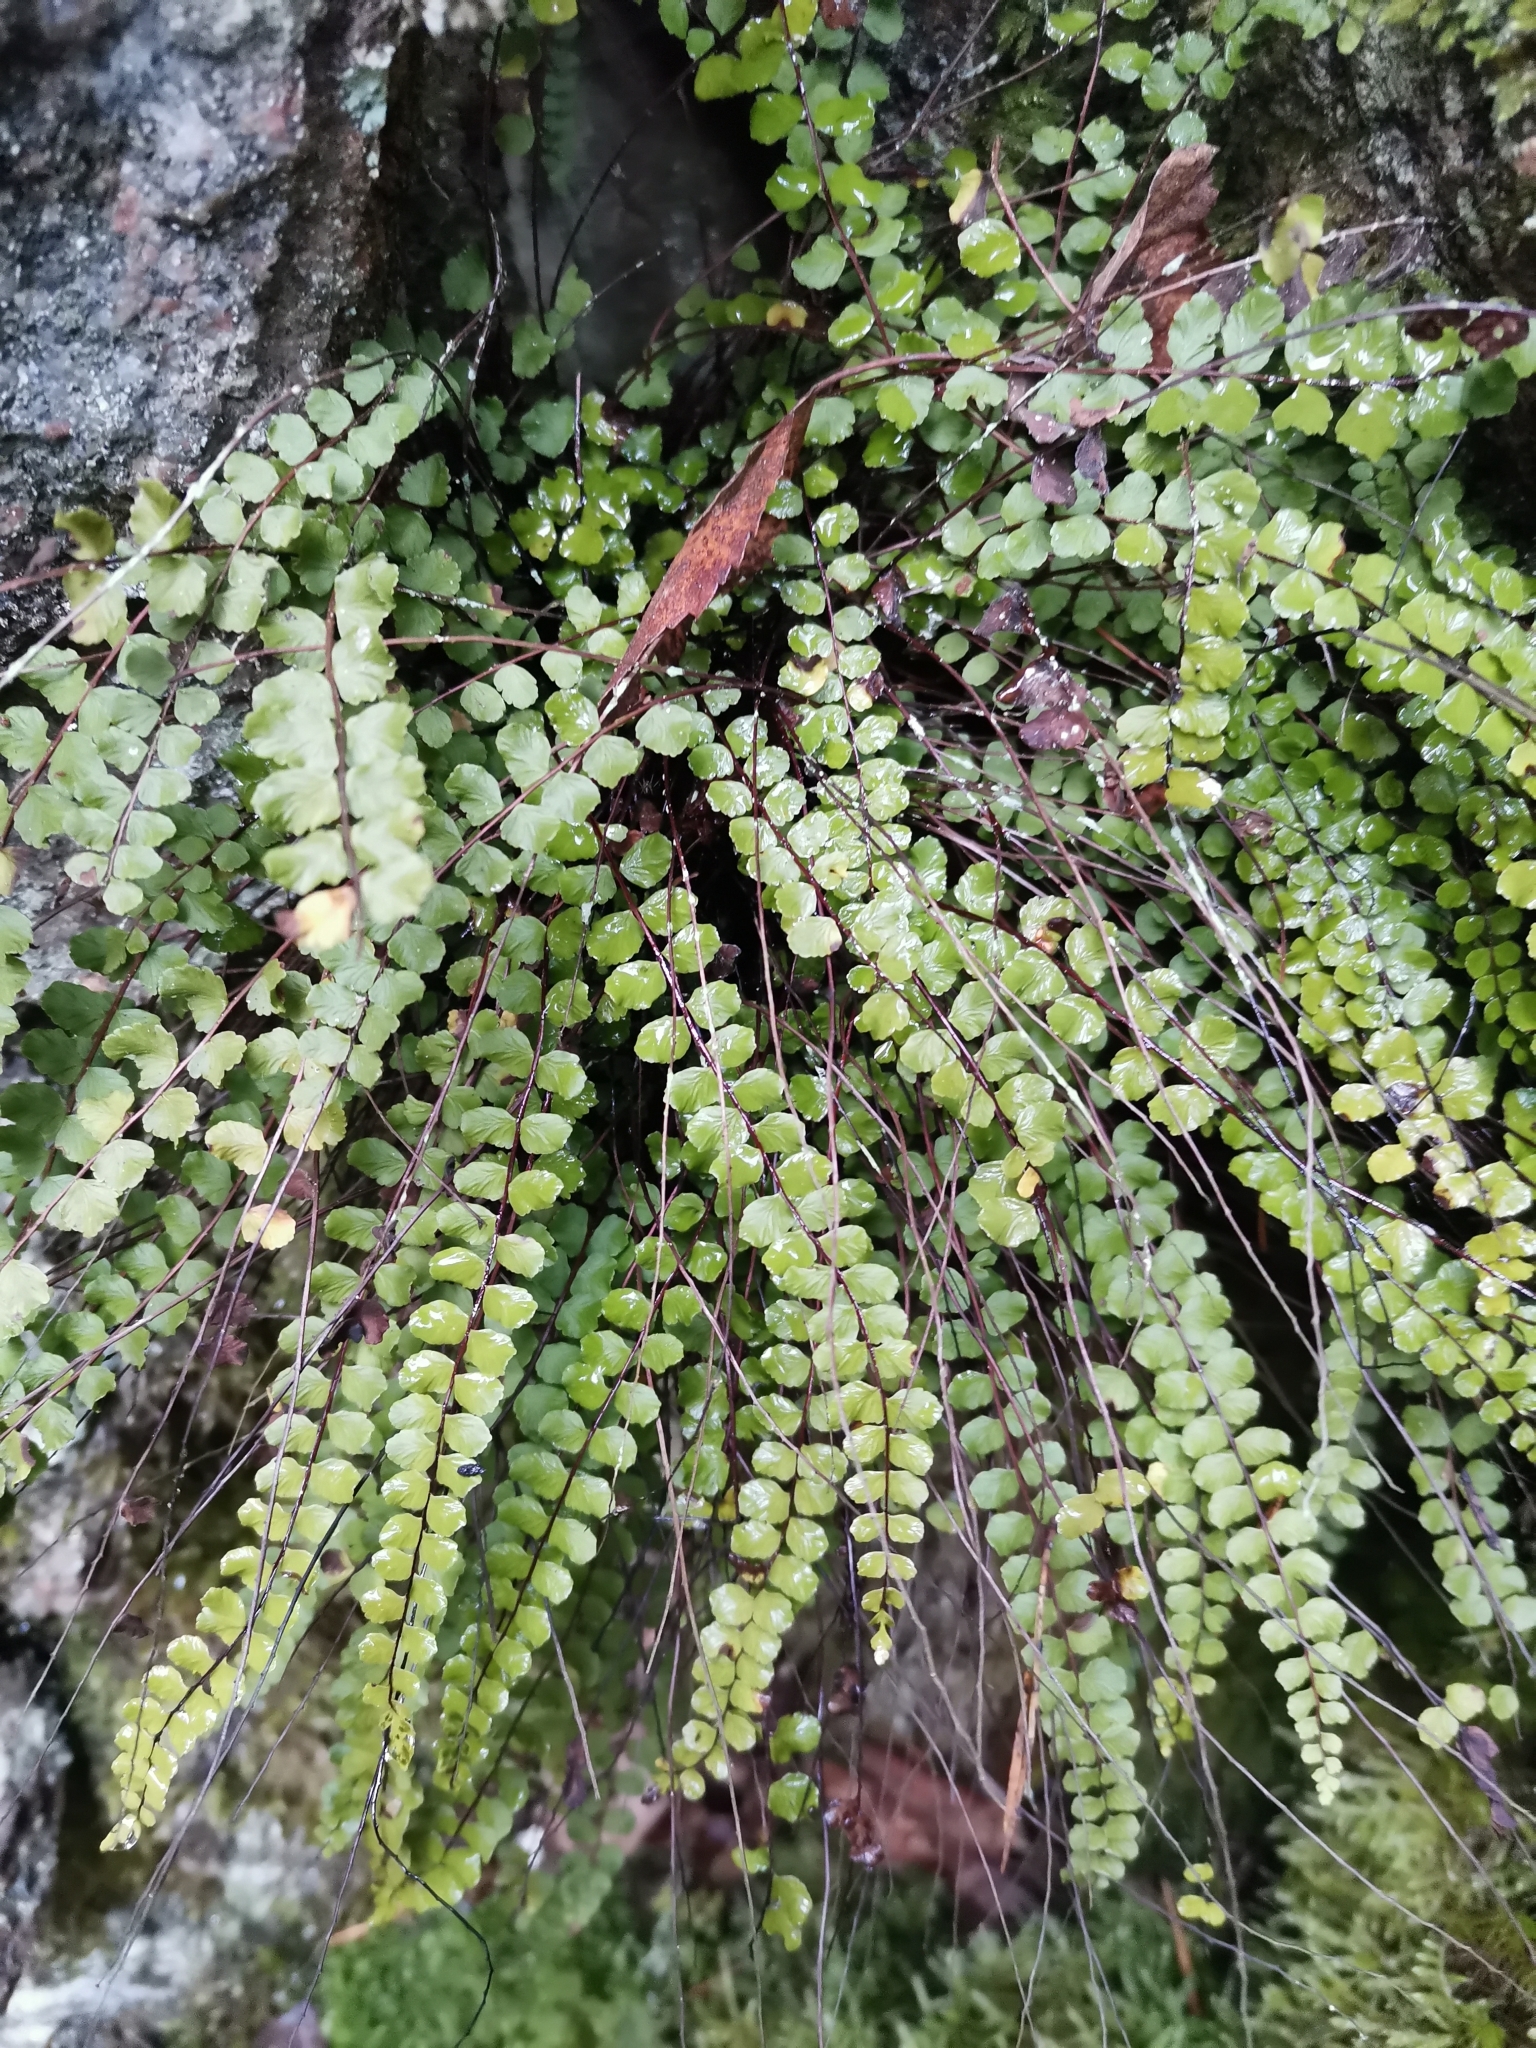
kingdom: Plantae
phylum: Tracheophyta
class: Polypodiopsida
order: Polypodiales
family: Aspleniaceae
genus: Asplenium
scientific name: Asplenium trichomanes
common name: Maidenhair spleenwort
